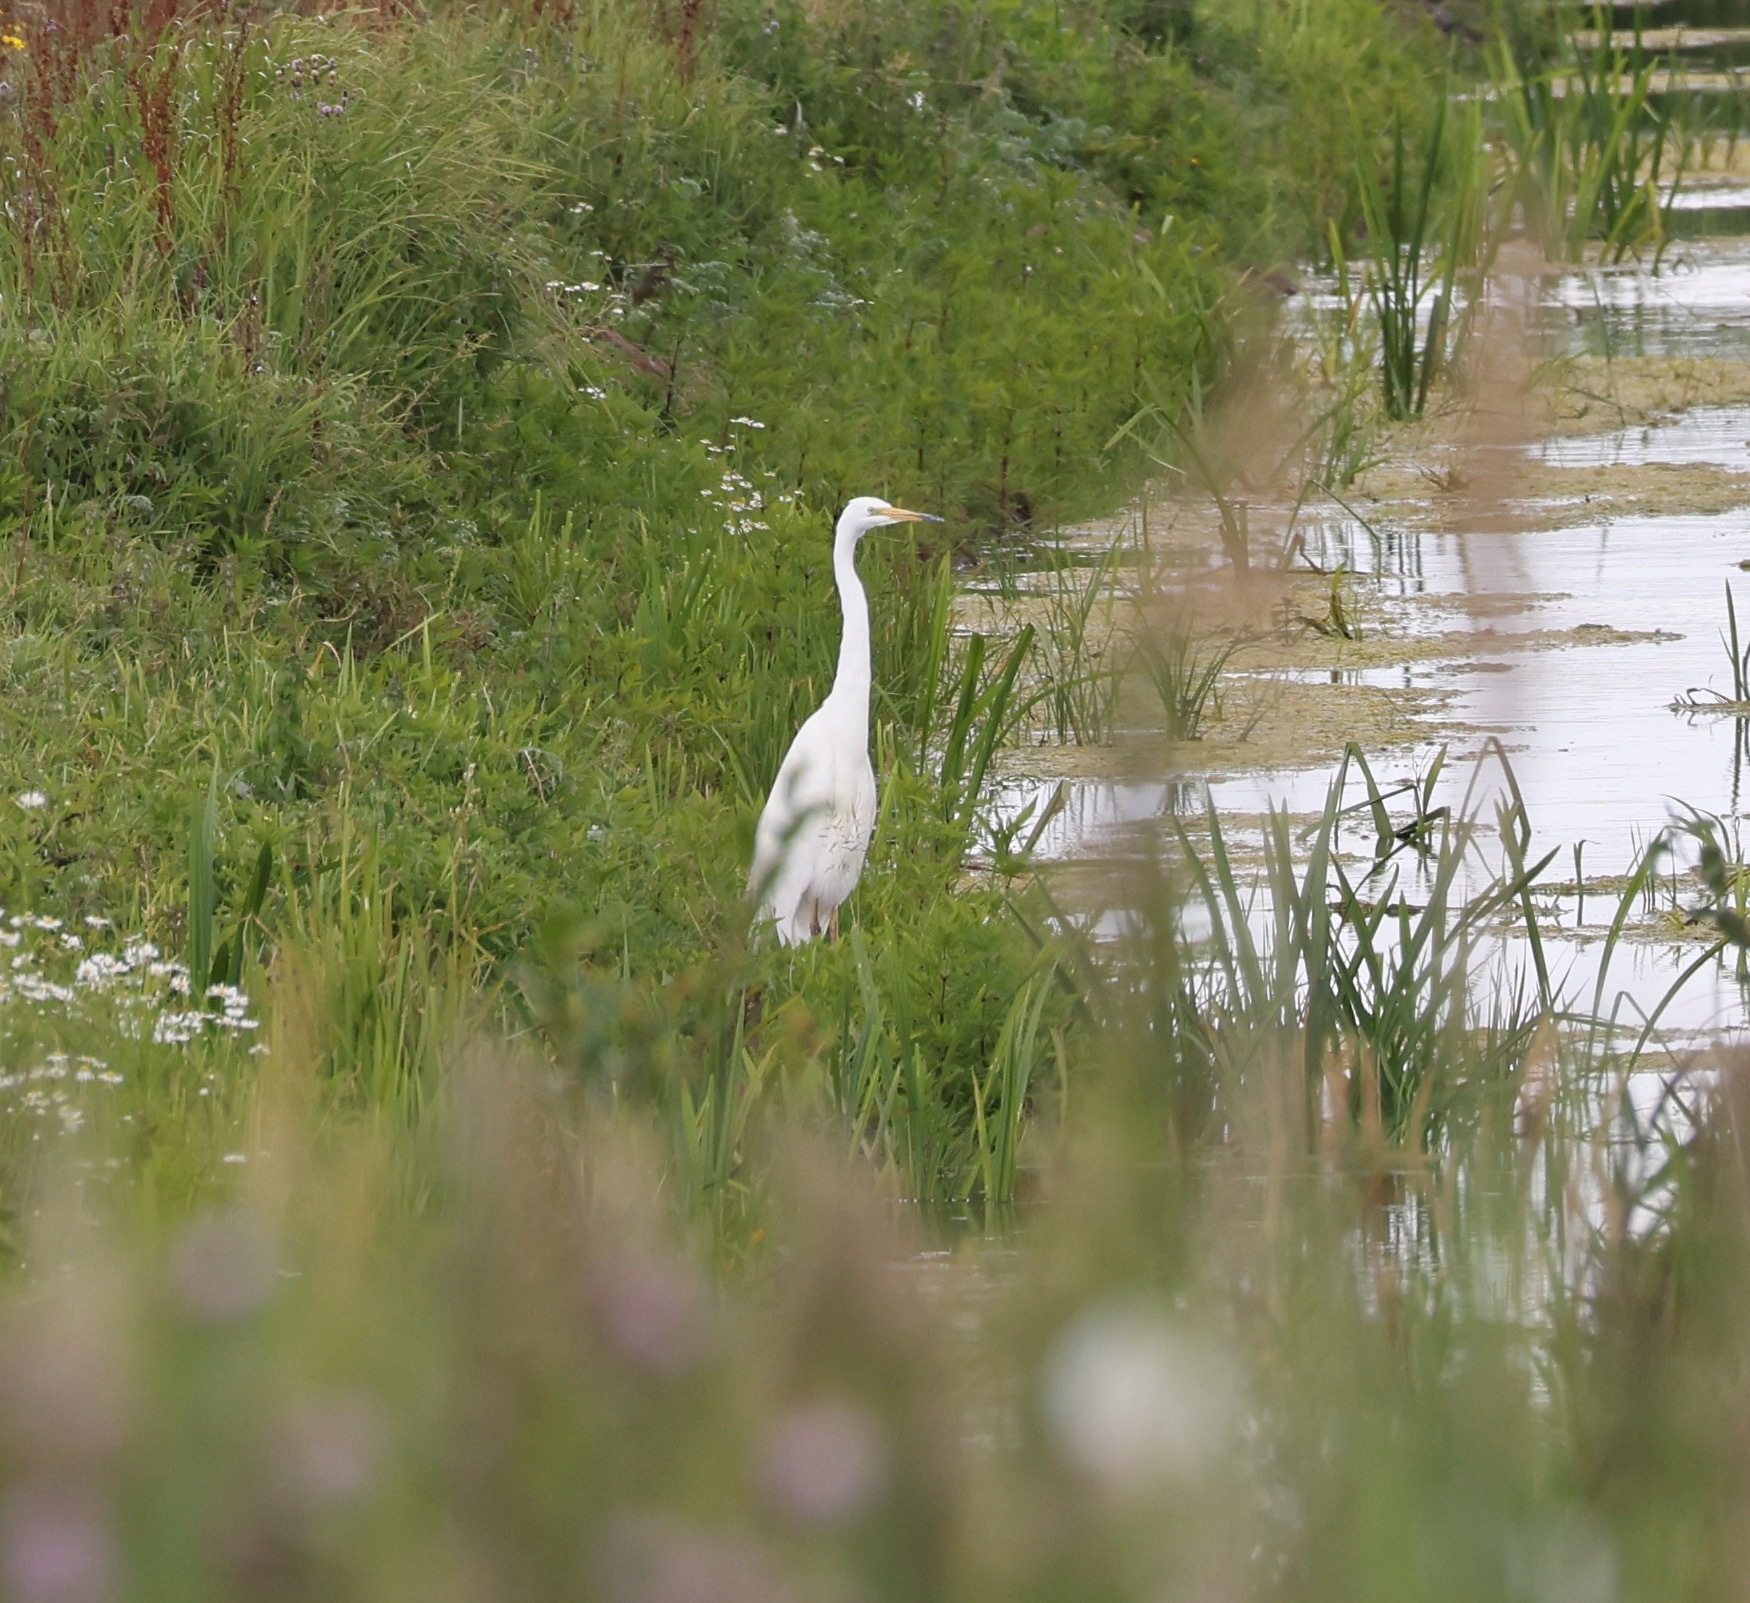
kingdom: Animalia
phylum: Chordata
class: Aves
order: Pelecaniformes
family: Ardeidae
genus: Ardea
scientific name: Ardea alba
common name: Great egret
